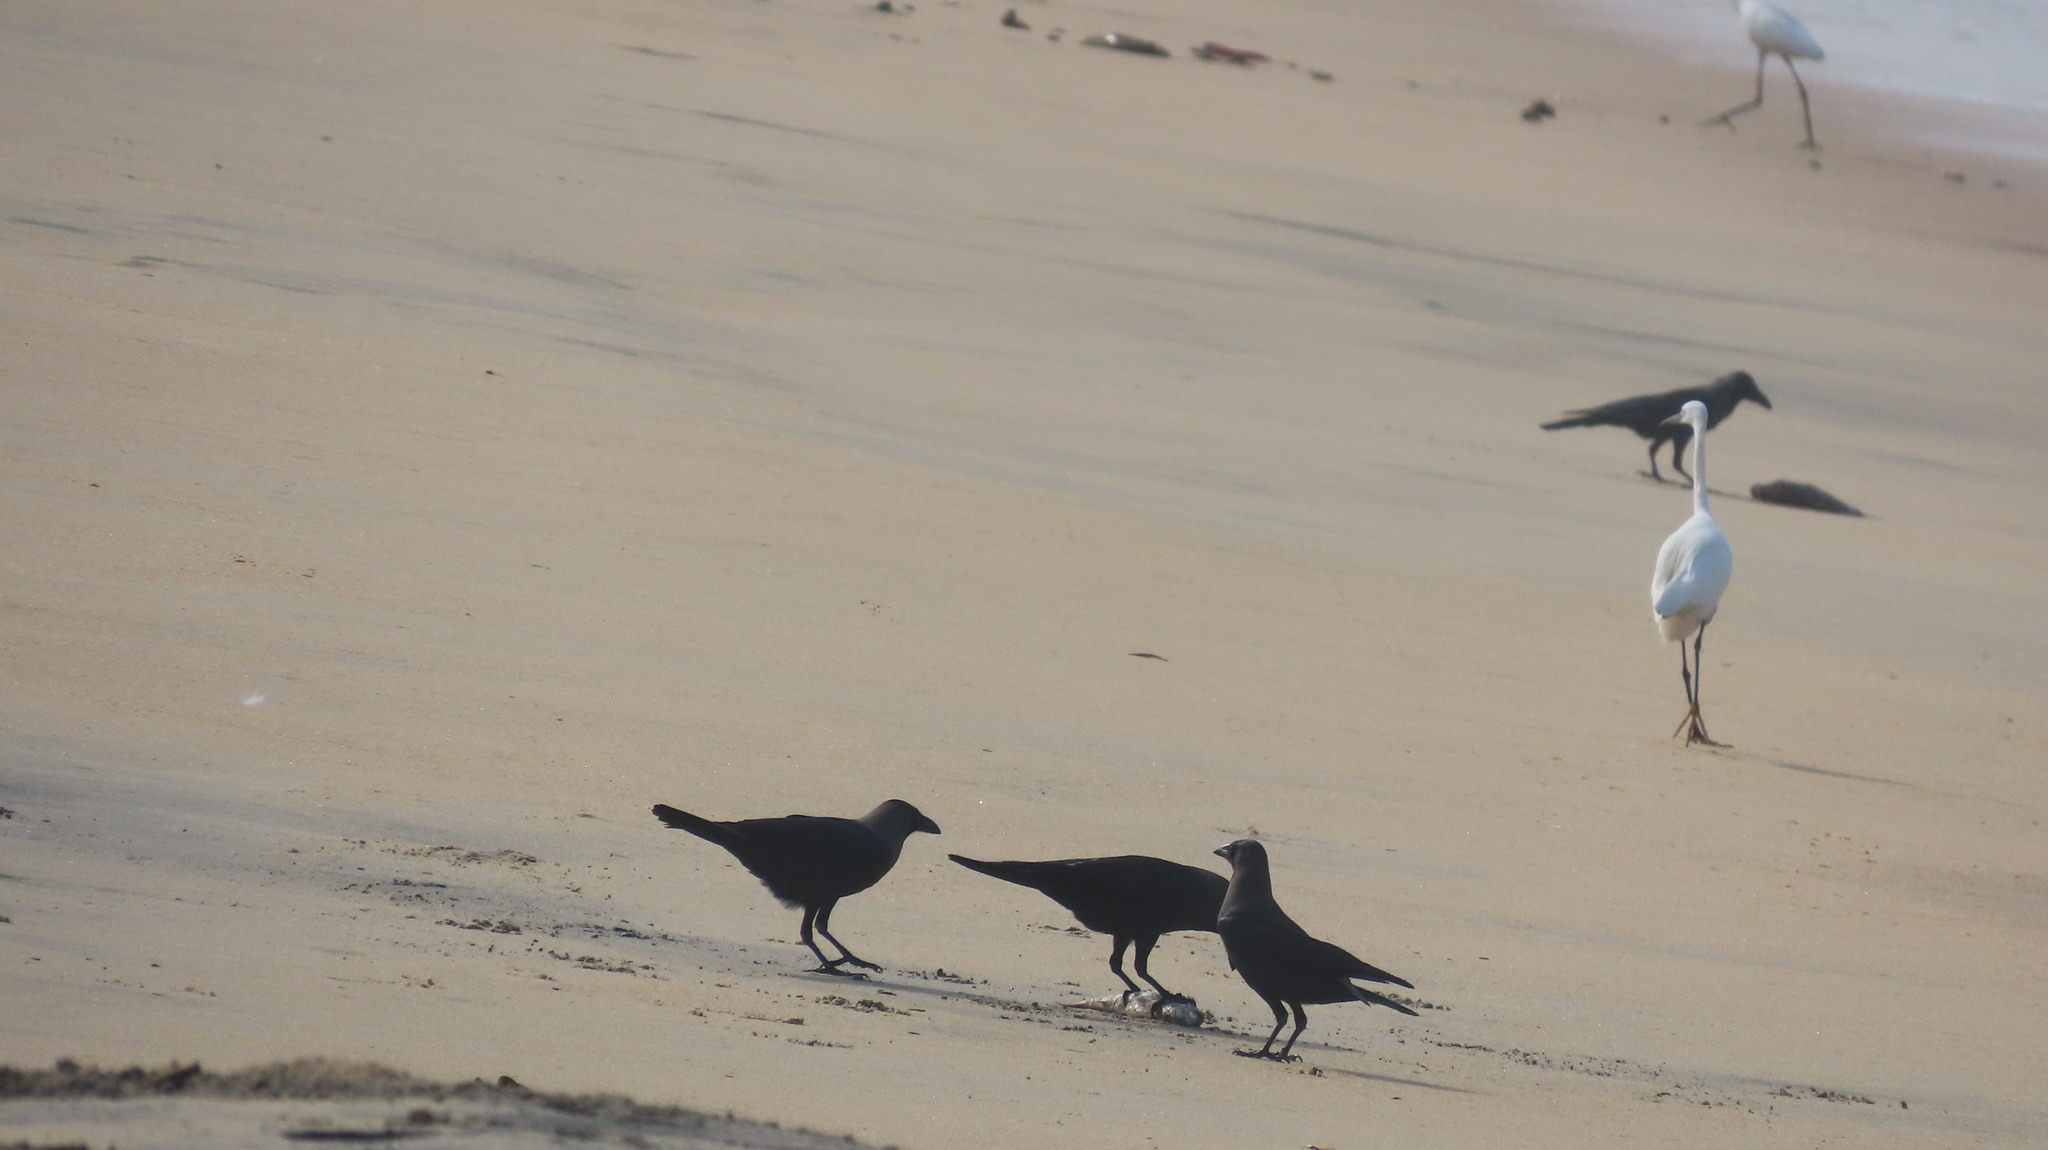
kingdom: Animalia
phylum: Chordata
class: Aves
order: Passeriformes
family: Corvidae
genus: Corvus
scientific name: Corvus splendens
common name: House crow
